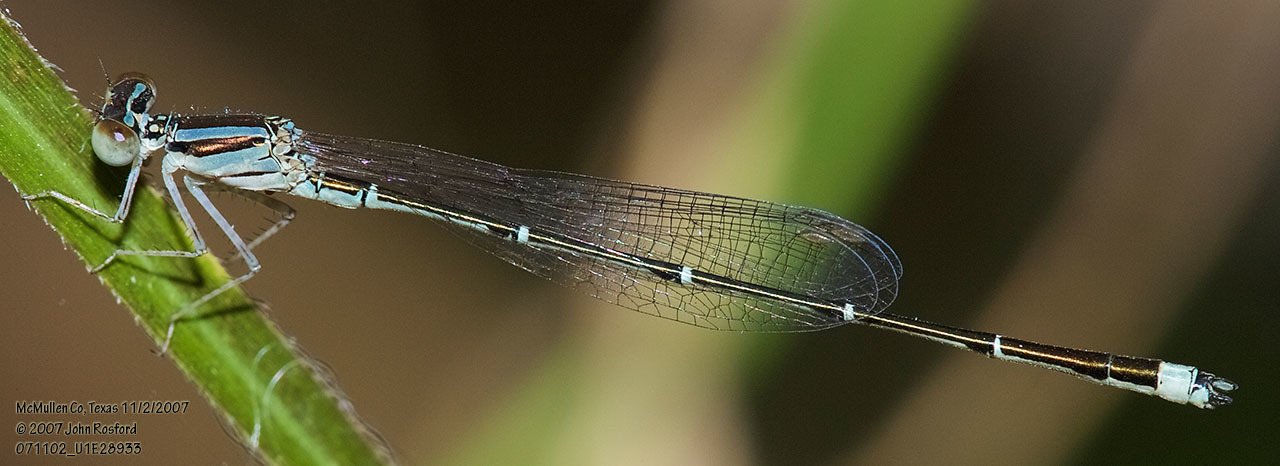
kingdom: Animalia
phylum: Arthropoda
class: Insecta
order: Odonata
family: Coenagrionidae
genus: Enallagma
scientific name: Enallagma signatum
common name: Orange bluet
